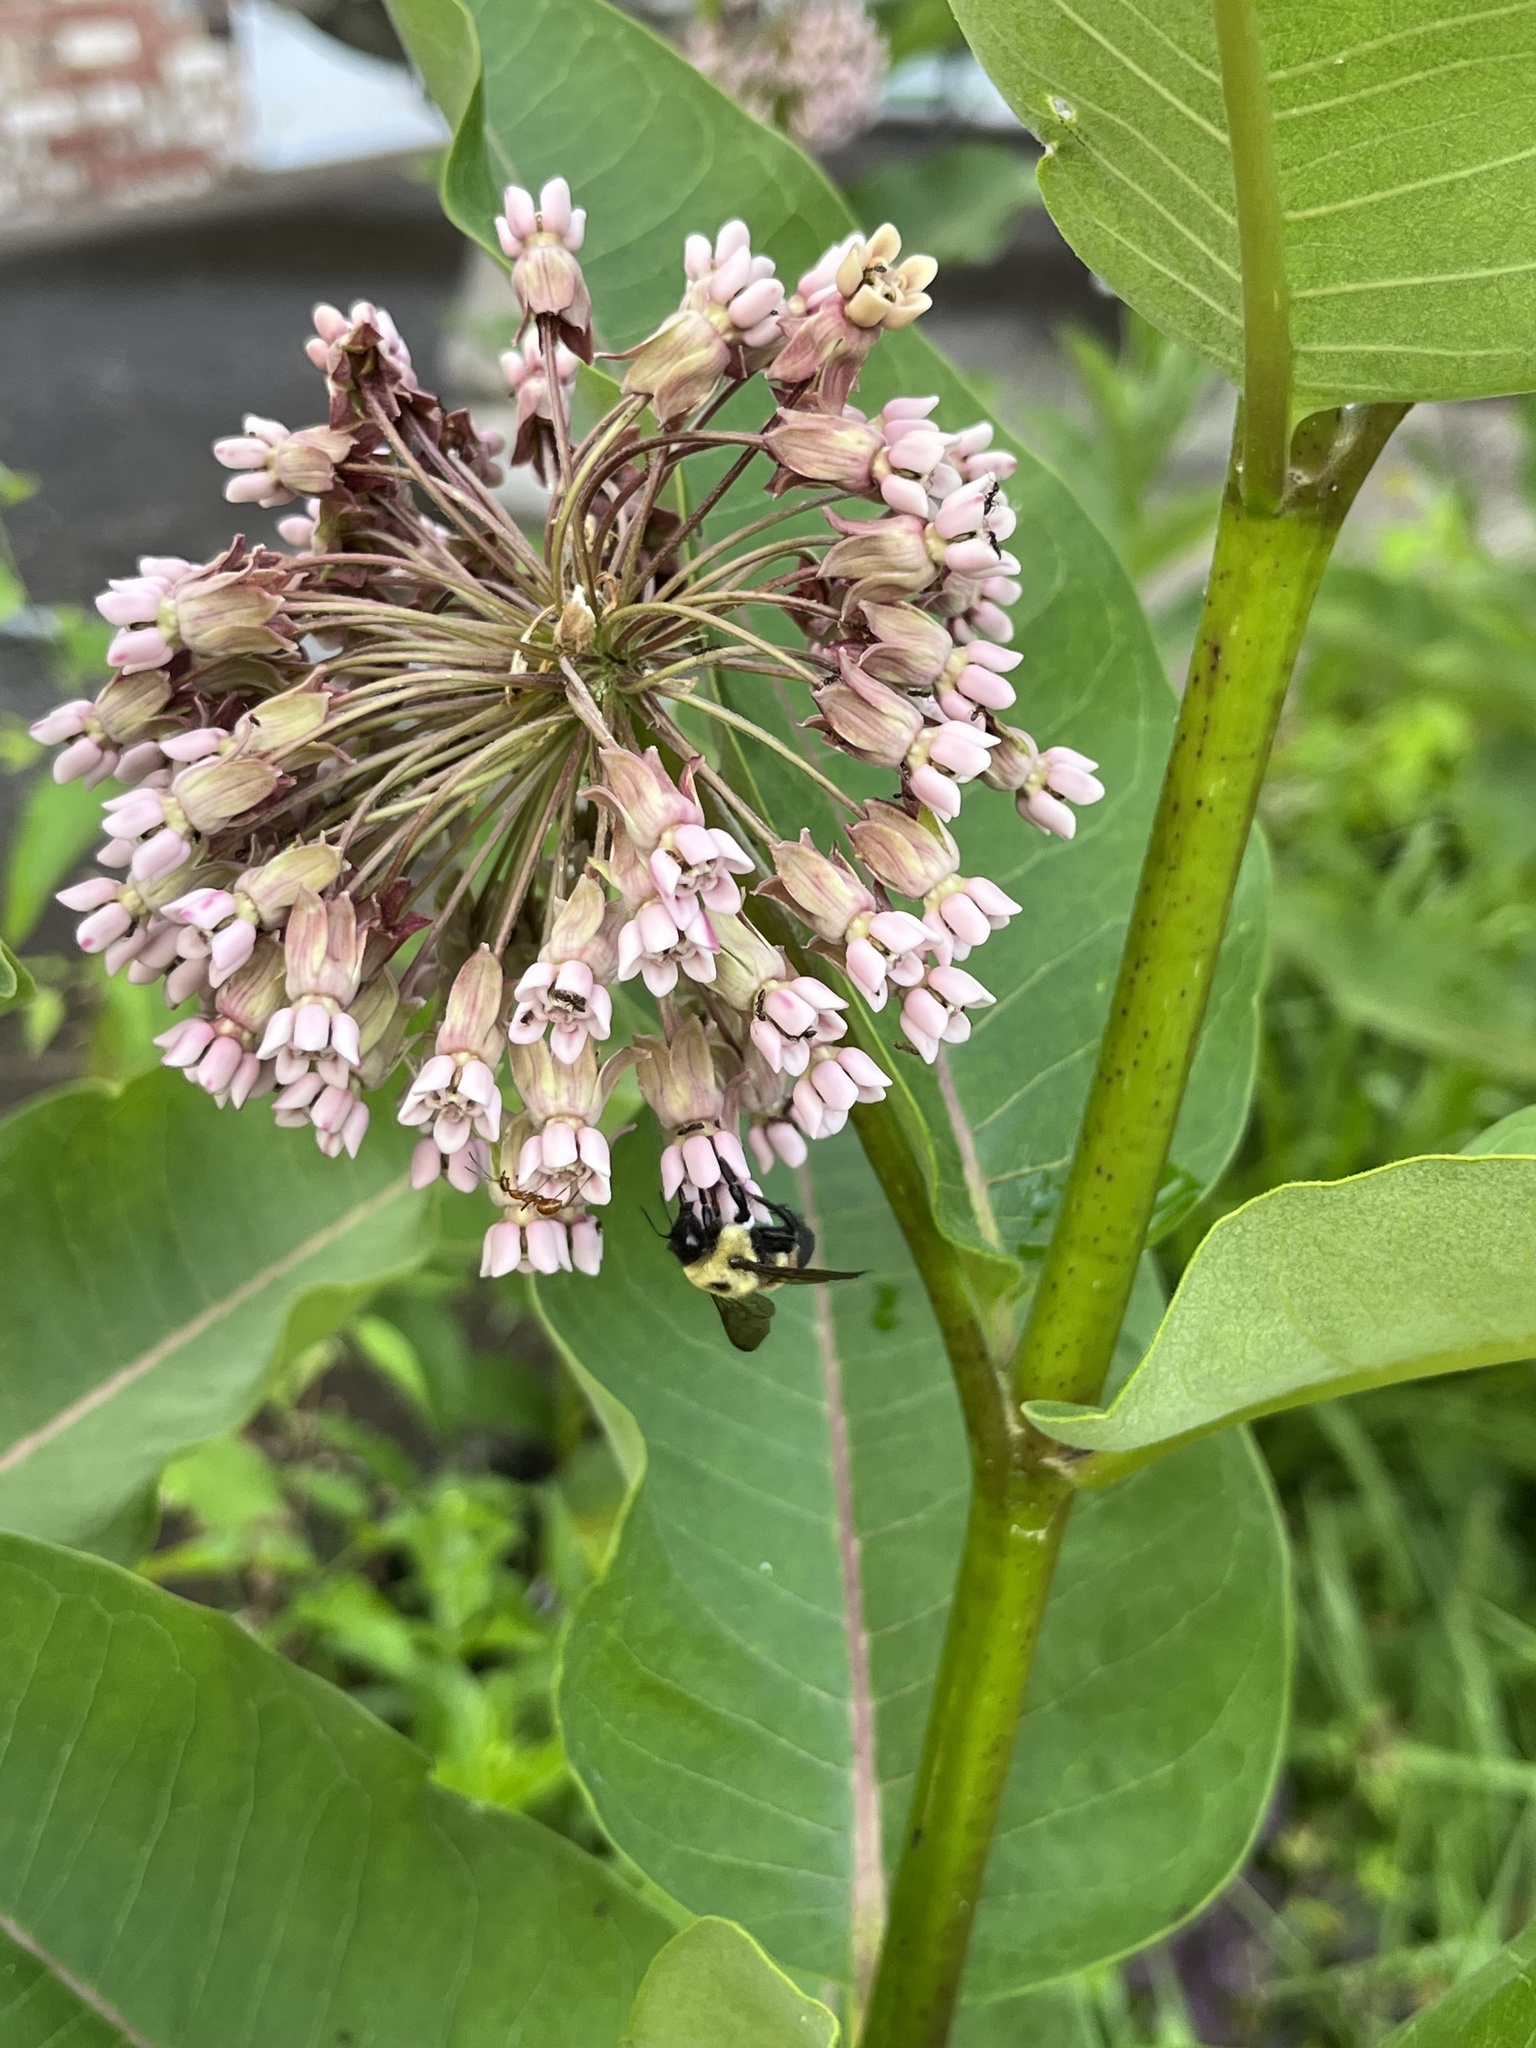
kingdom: Animalia
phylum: Arthropoda
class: Insecta
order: Hymenoptera
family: Apidae
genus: Bombus
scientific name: Bombus griseocollis
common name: Brown-belted bumble bee
